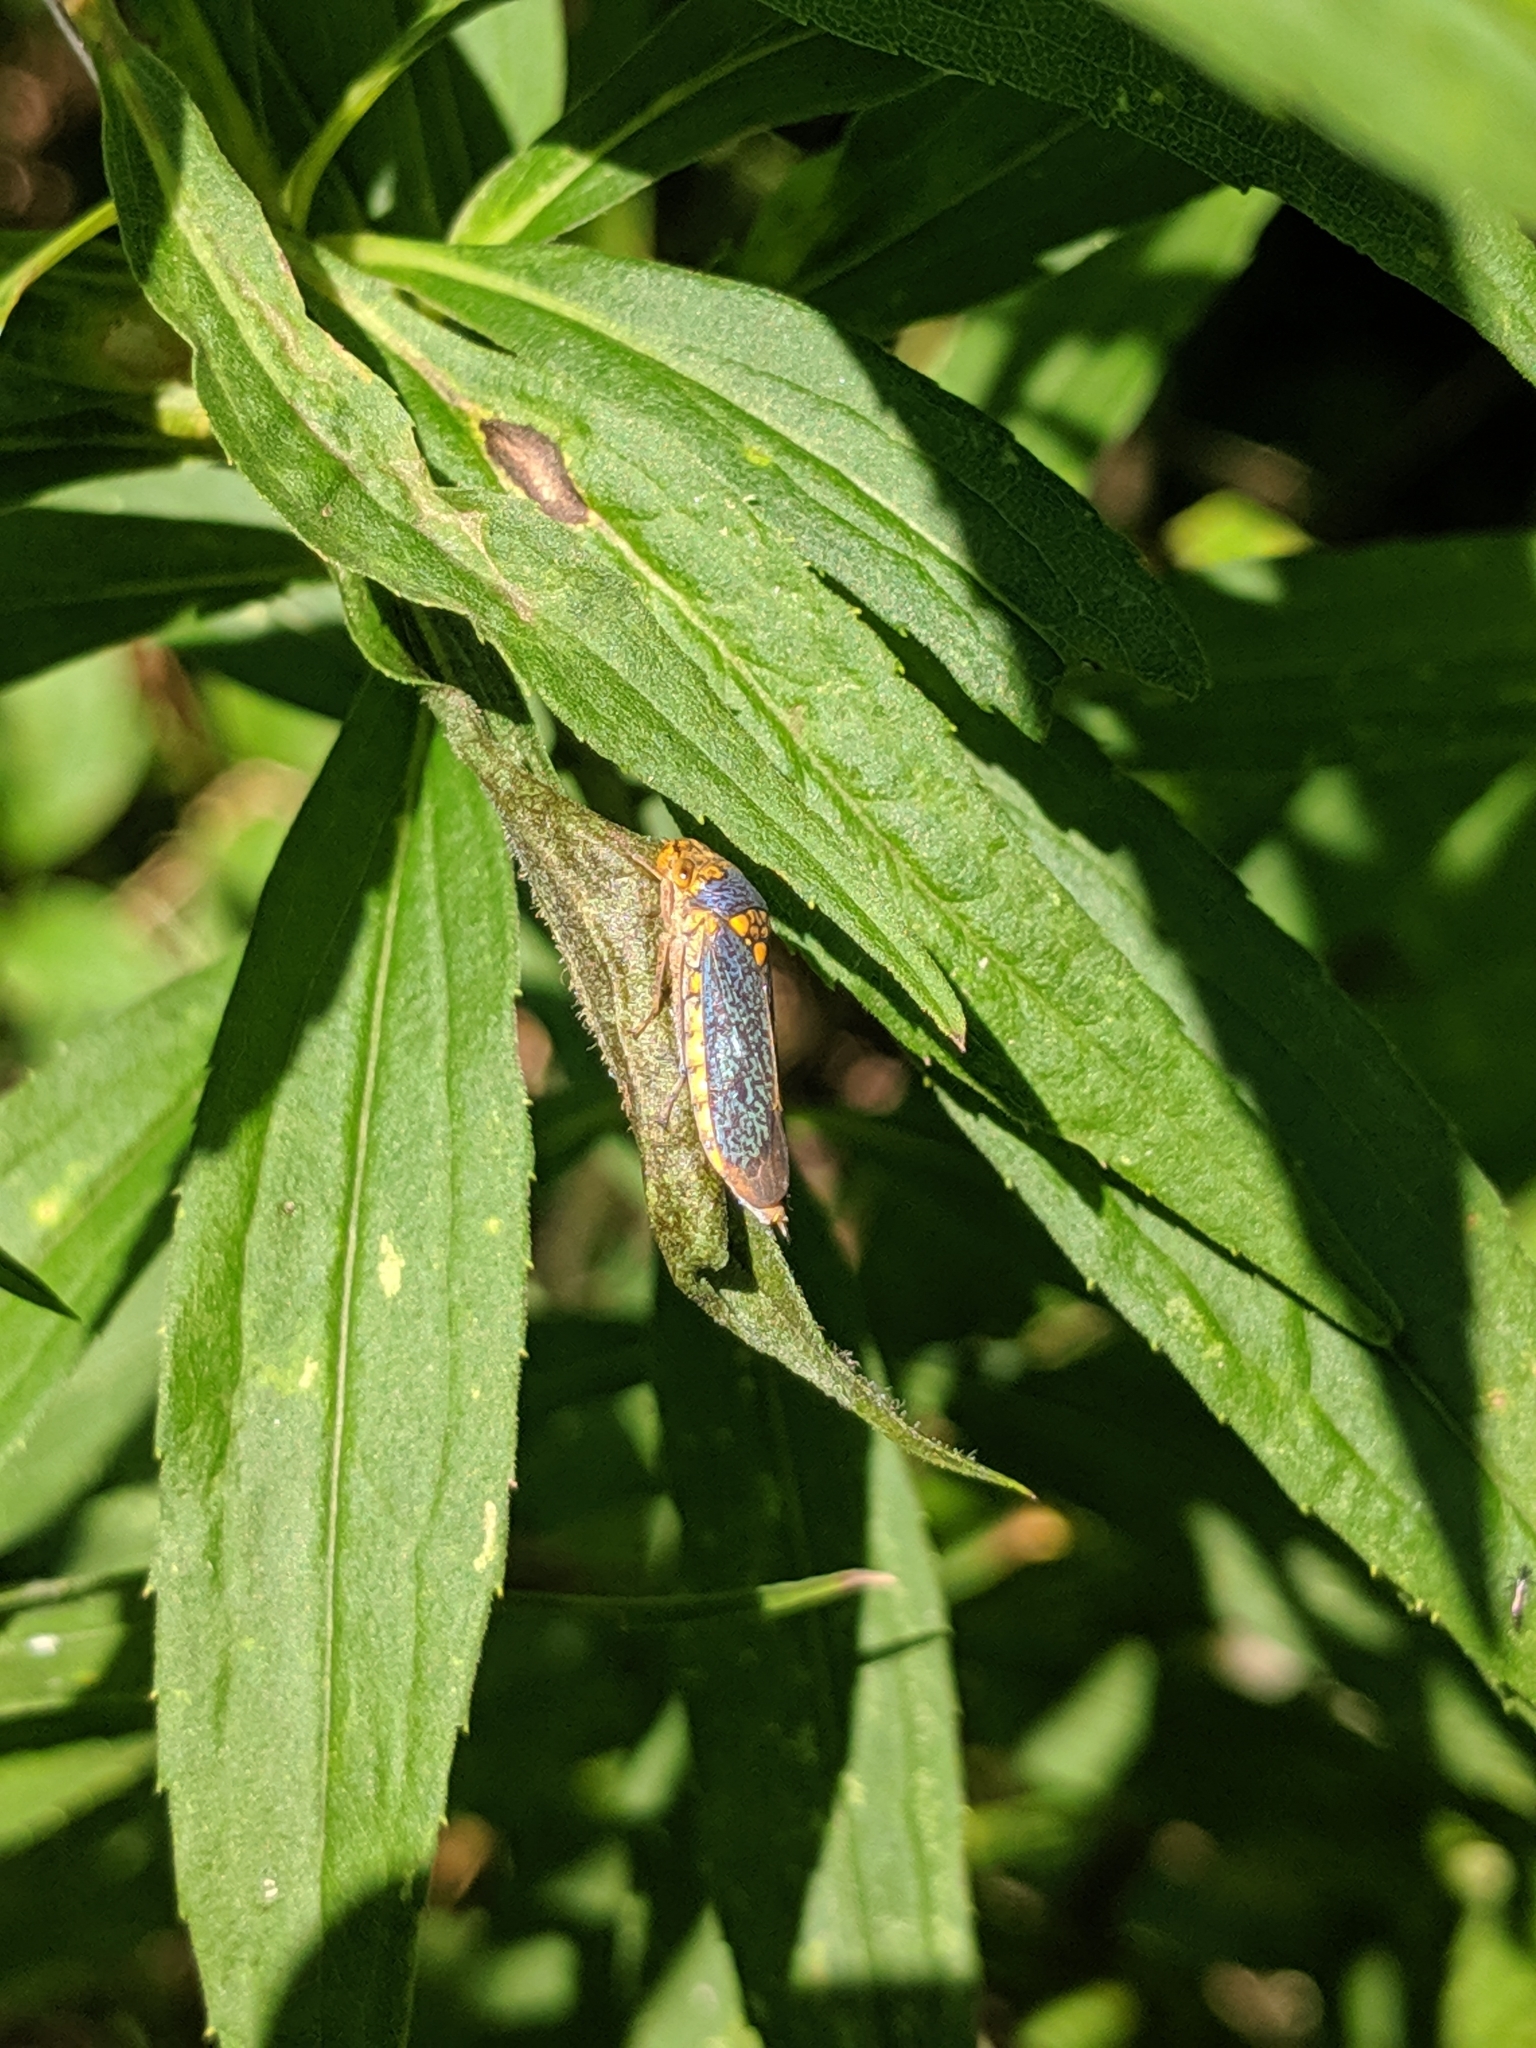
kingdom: Animalia
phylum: Arthropoda
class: Insecta
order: Hemiptera
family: Cicadellidae
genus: Oncometopia
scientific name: Oncometopia orbona
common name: Broad-headed sharpshooter
